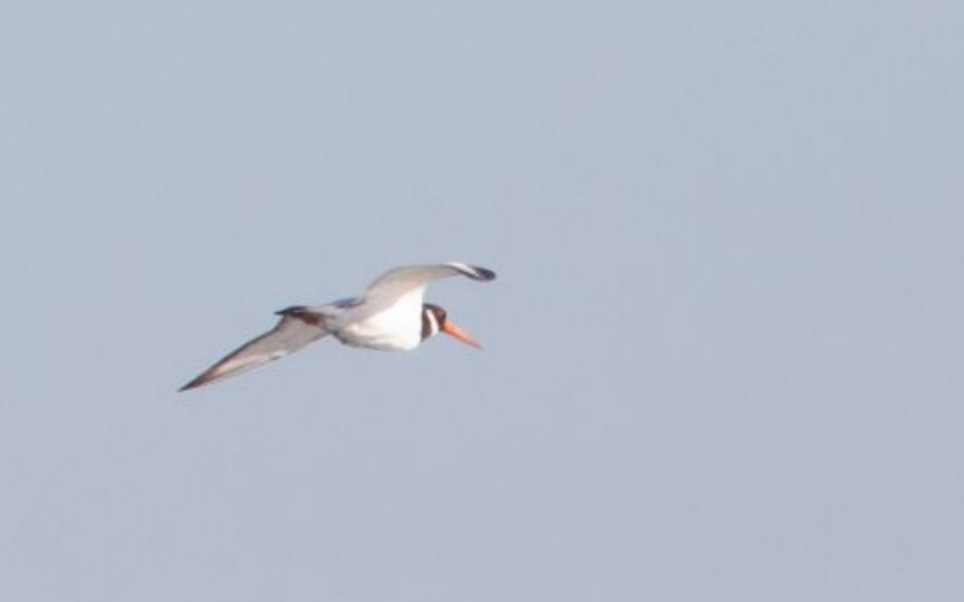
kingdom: Animalia
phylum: Chordata
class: Aves
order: Charadriiformes
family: Haematopodidae
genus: Haematopus
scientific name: Haematopus ostralegus
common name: Eurasian oystercatcher
